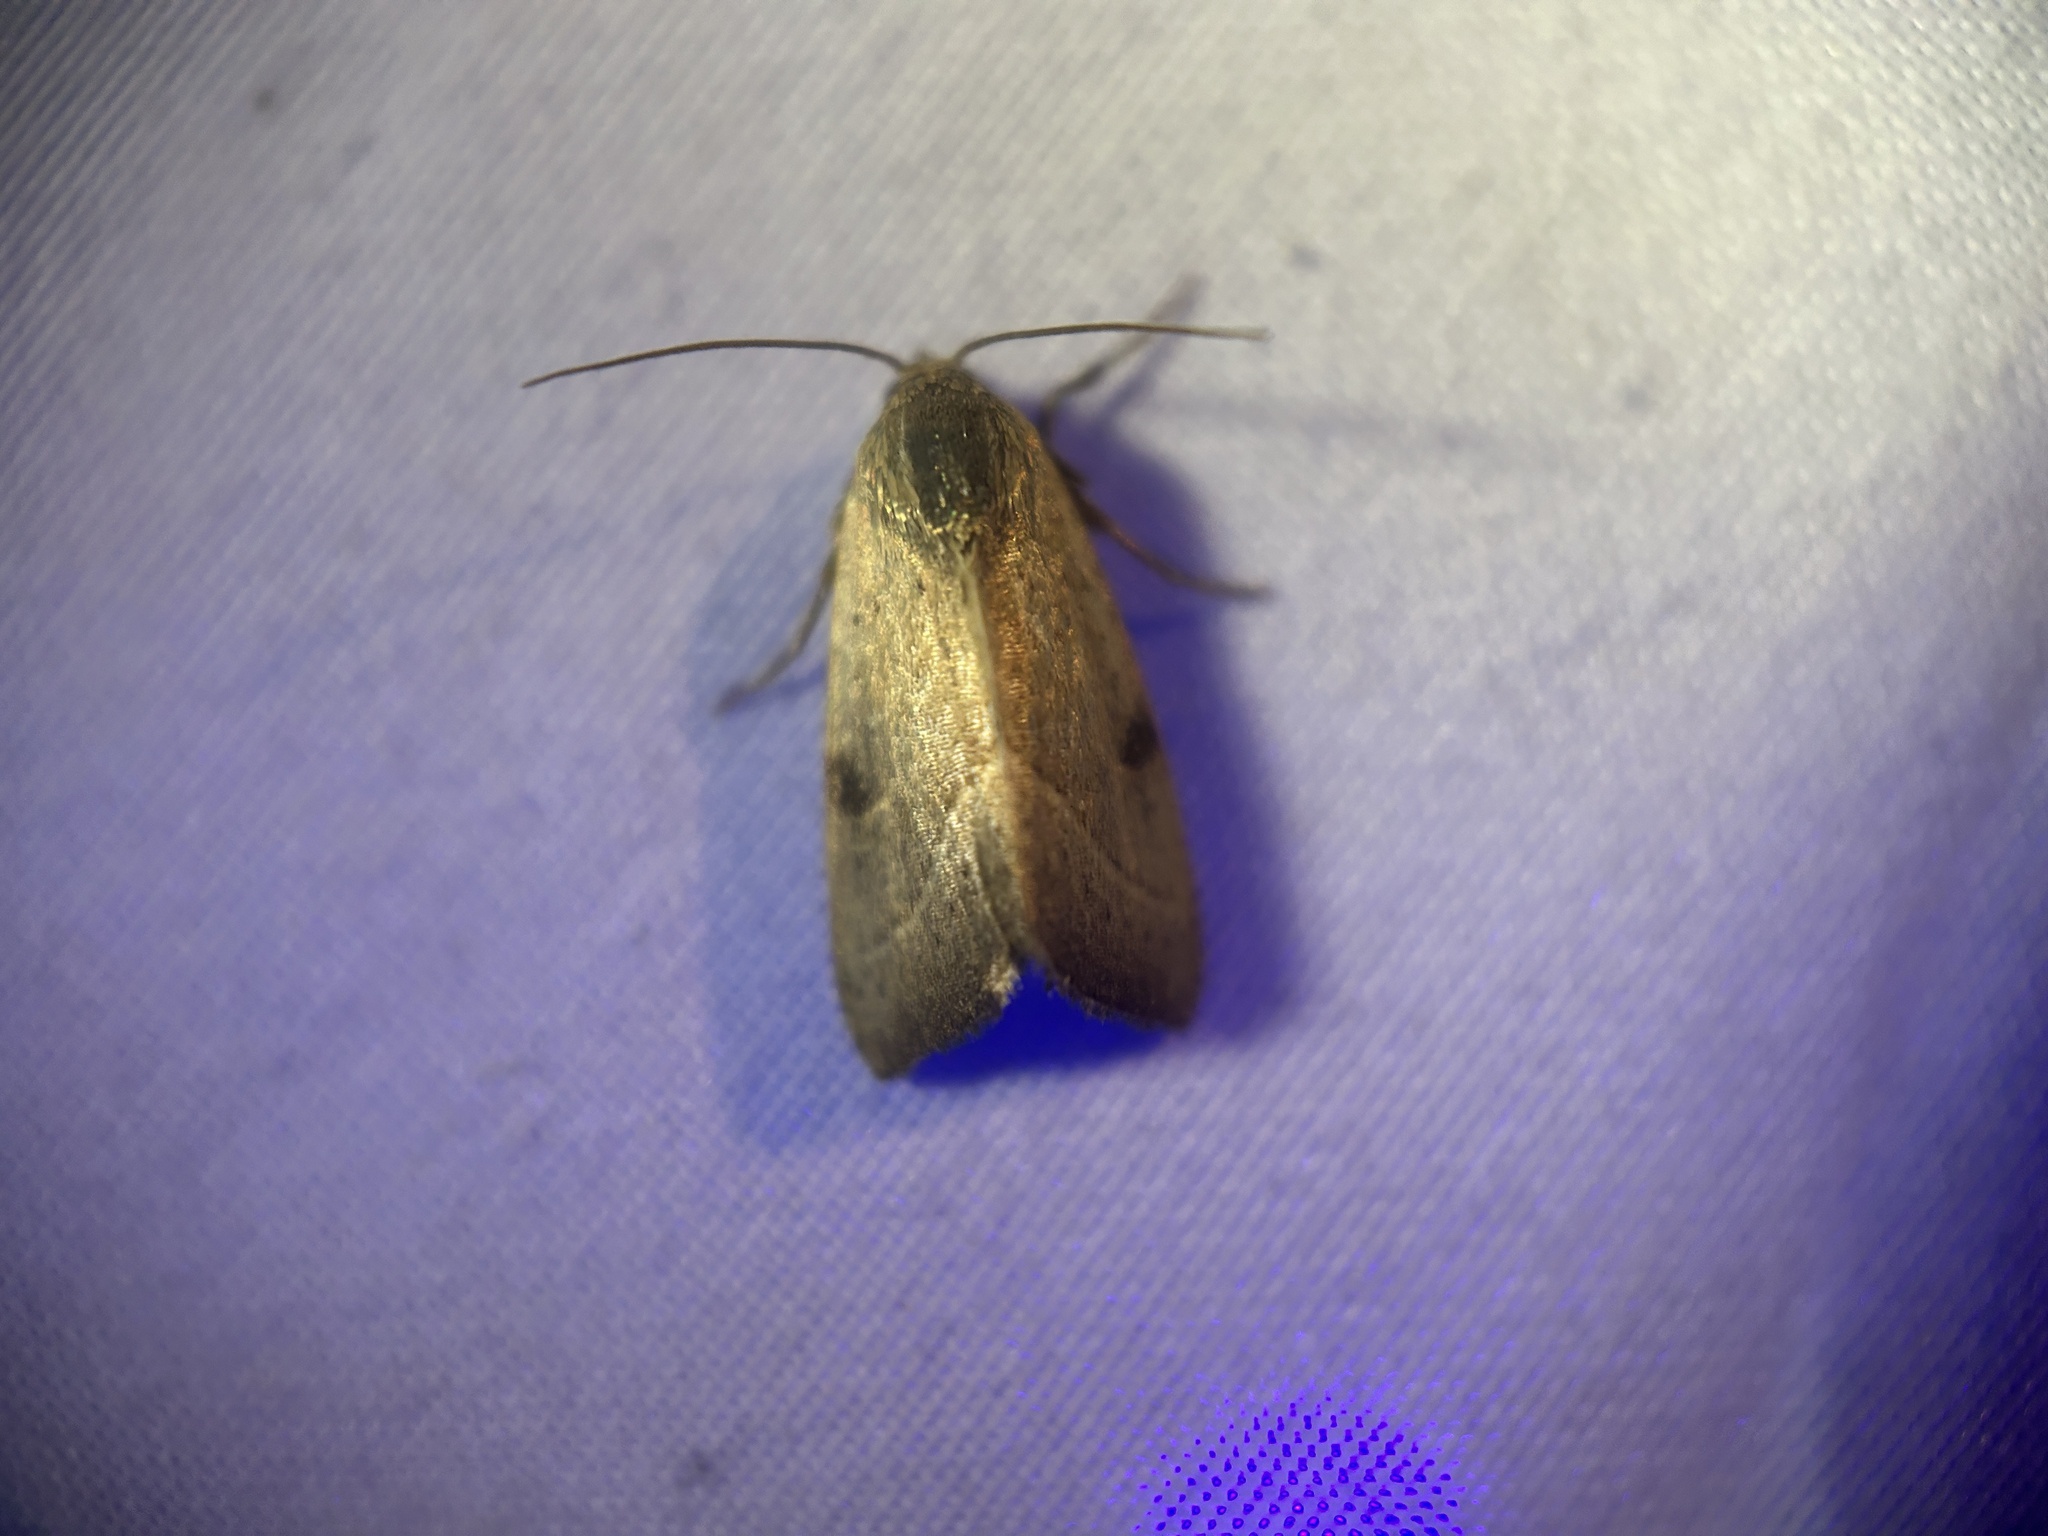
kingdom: Animalia
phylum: Arthropoda
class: Insecta
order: Lepidoptera
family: Noctuidae
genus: Galgula
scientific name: Galgula partita
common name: Wedgeling
